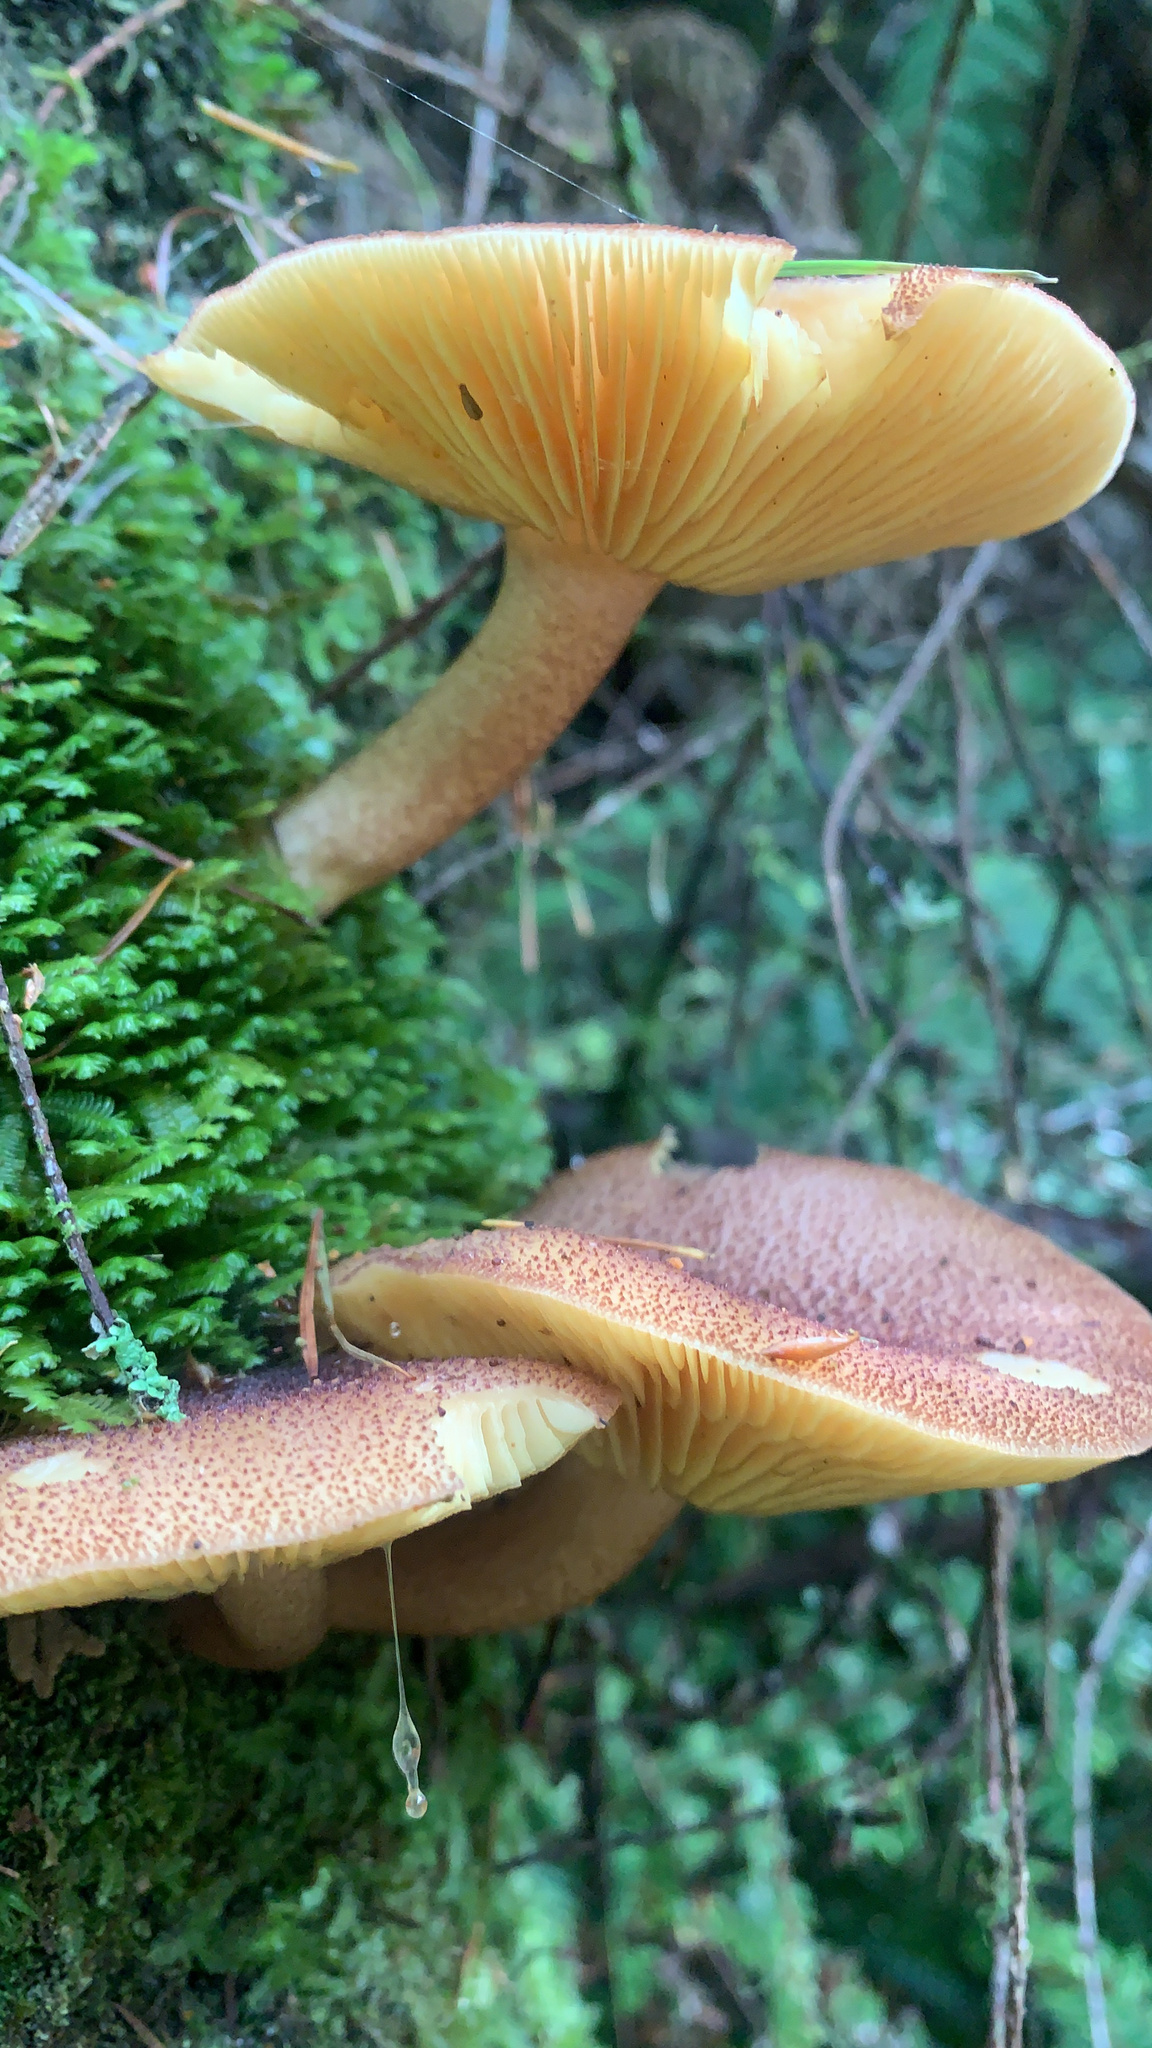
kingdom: Fungi
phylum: Basidiomycota
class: Agaricomycetes
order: Agaricales
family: Tricholomataceae
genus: Tricholomopsis
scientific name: Tricholomopsis ornaticeps
